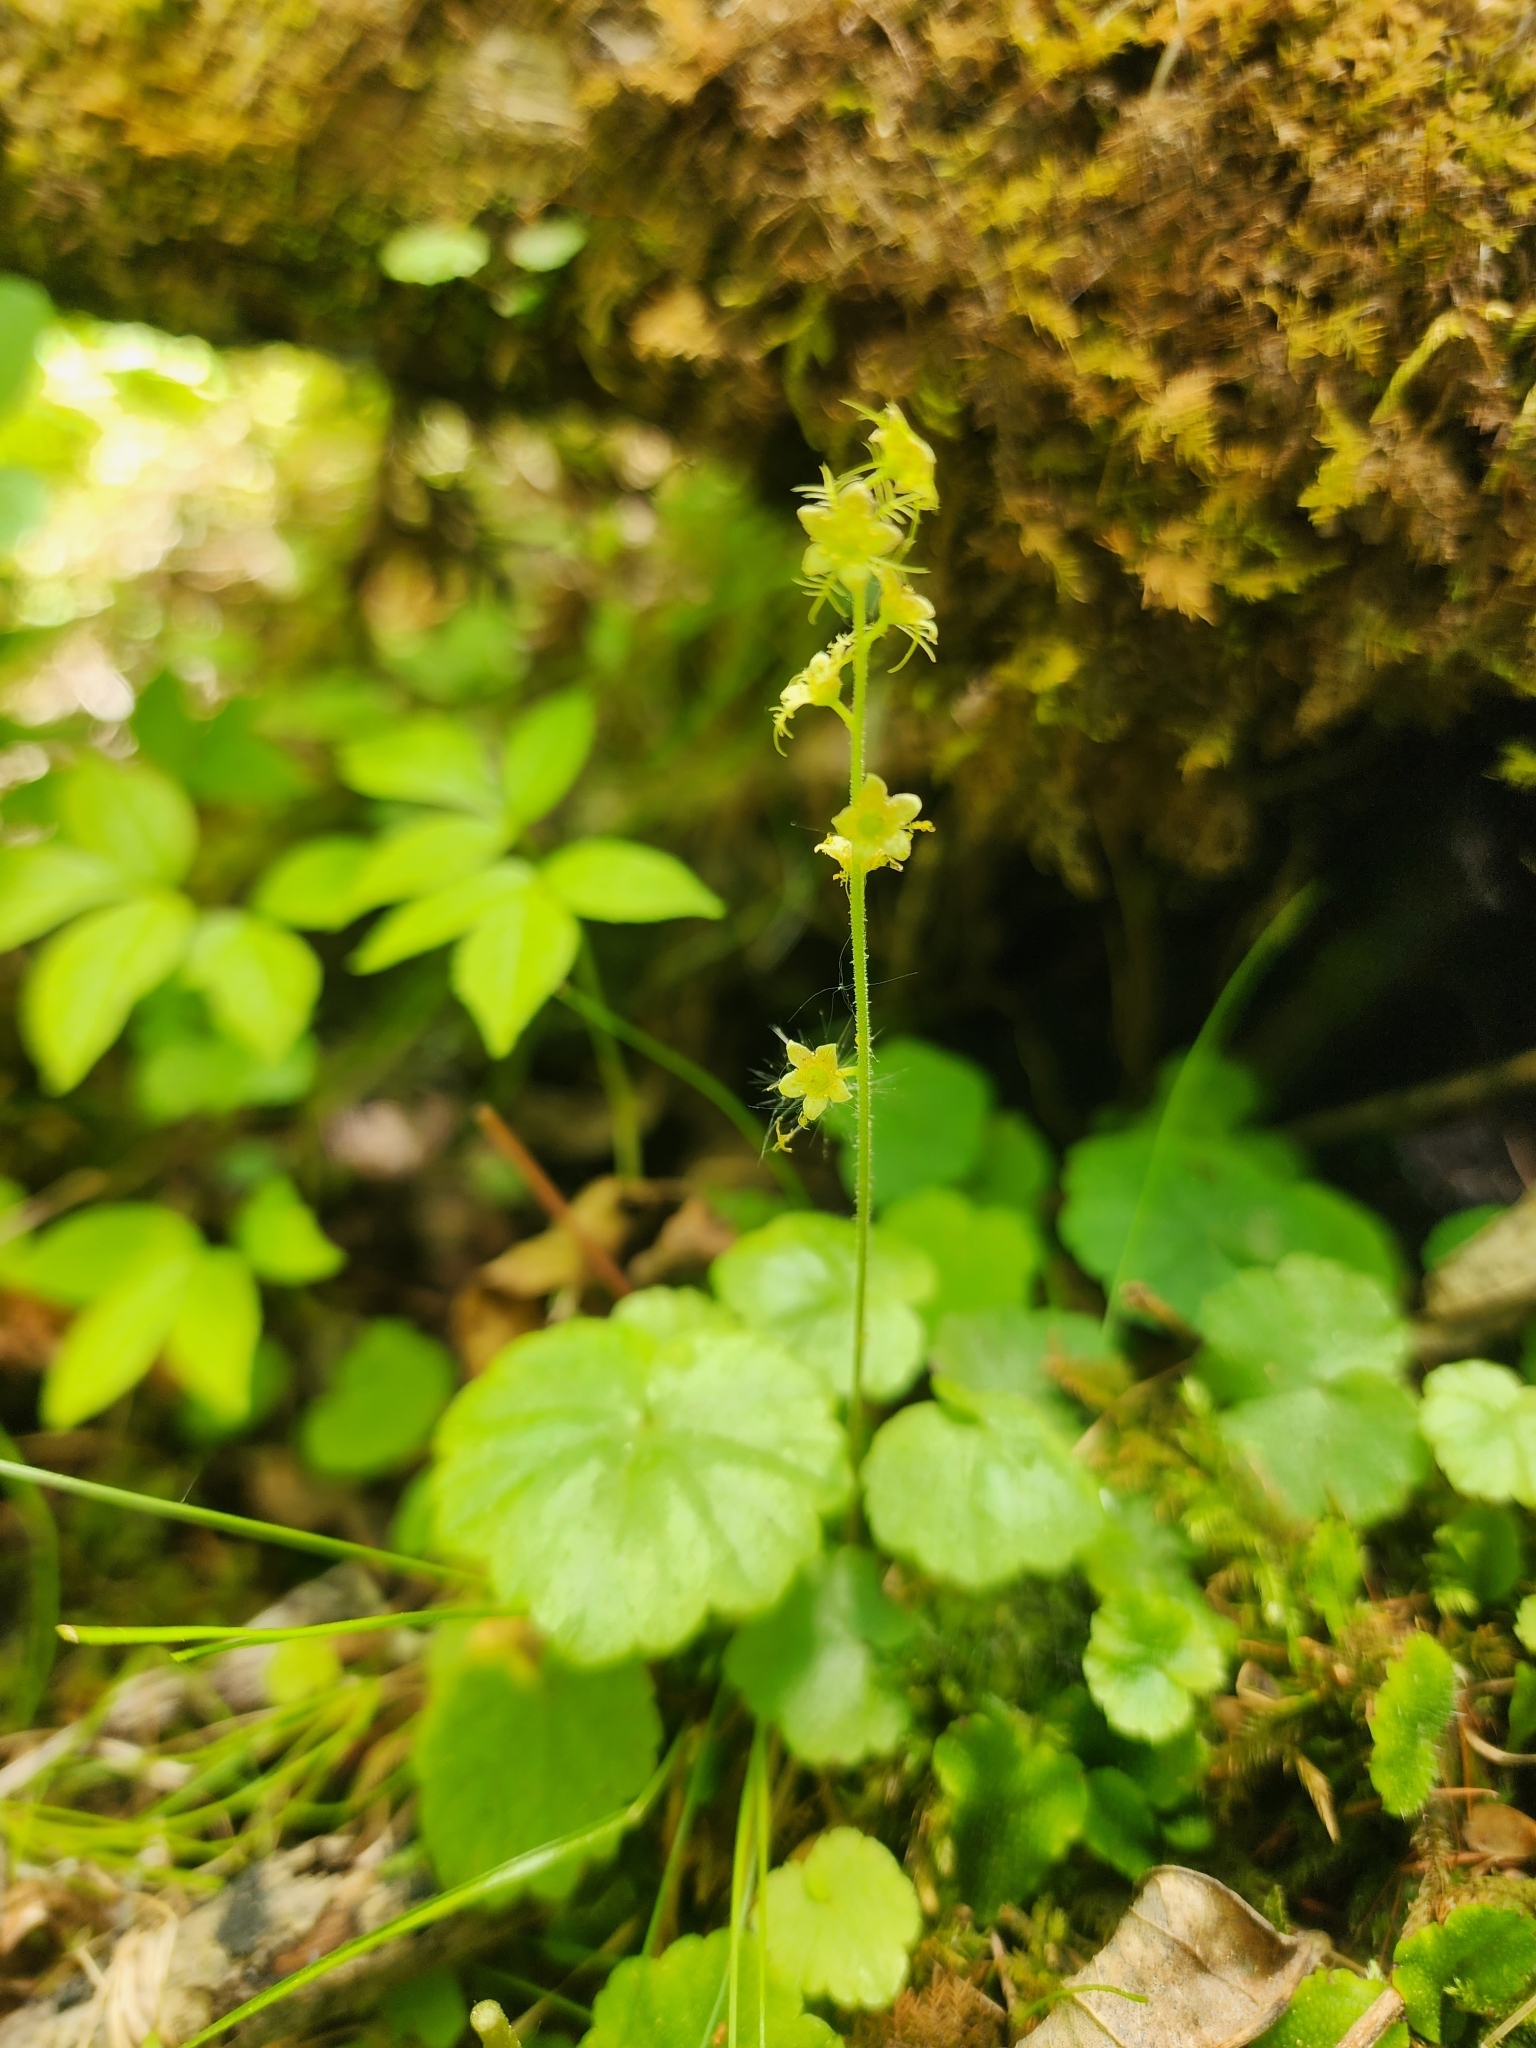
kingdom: Plantae
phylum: Tracheophyta
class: Magnoliopsida
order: Saxifragales
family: Saxifragaceae
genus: Mitella
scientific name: Mitella nuda
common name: Bare-stemmed bishop's-cap
